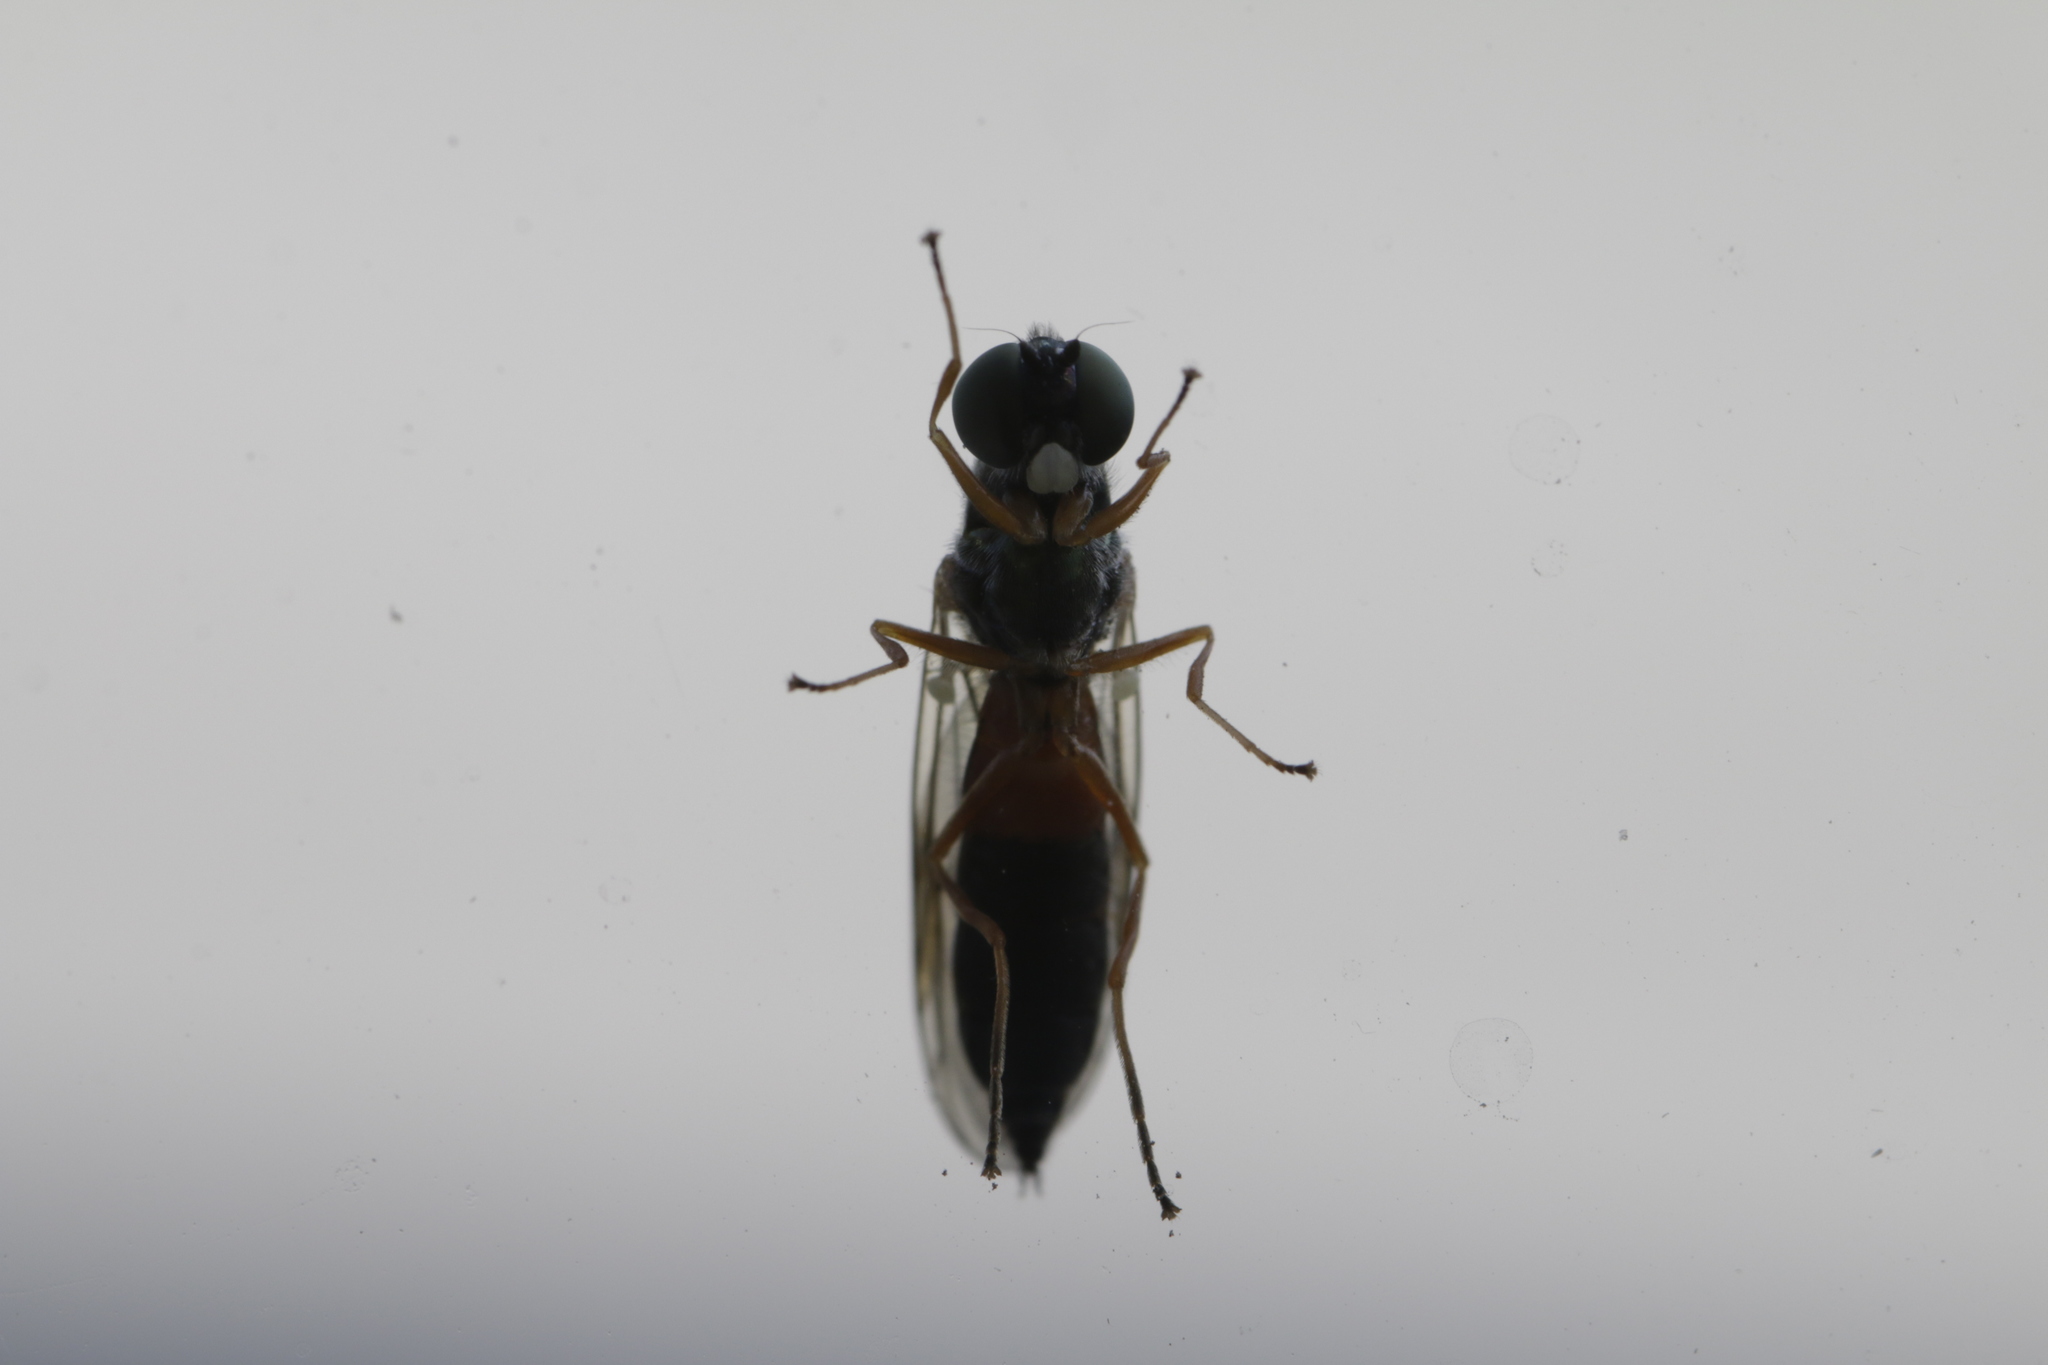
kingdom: Animalia
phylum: Arthropoda
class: Insecta
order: Diptera
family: Stratiomyidae
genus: Sargus
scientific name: Sargus bipunctatus
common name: Twin-spot centurion
